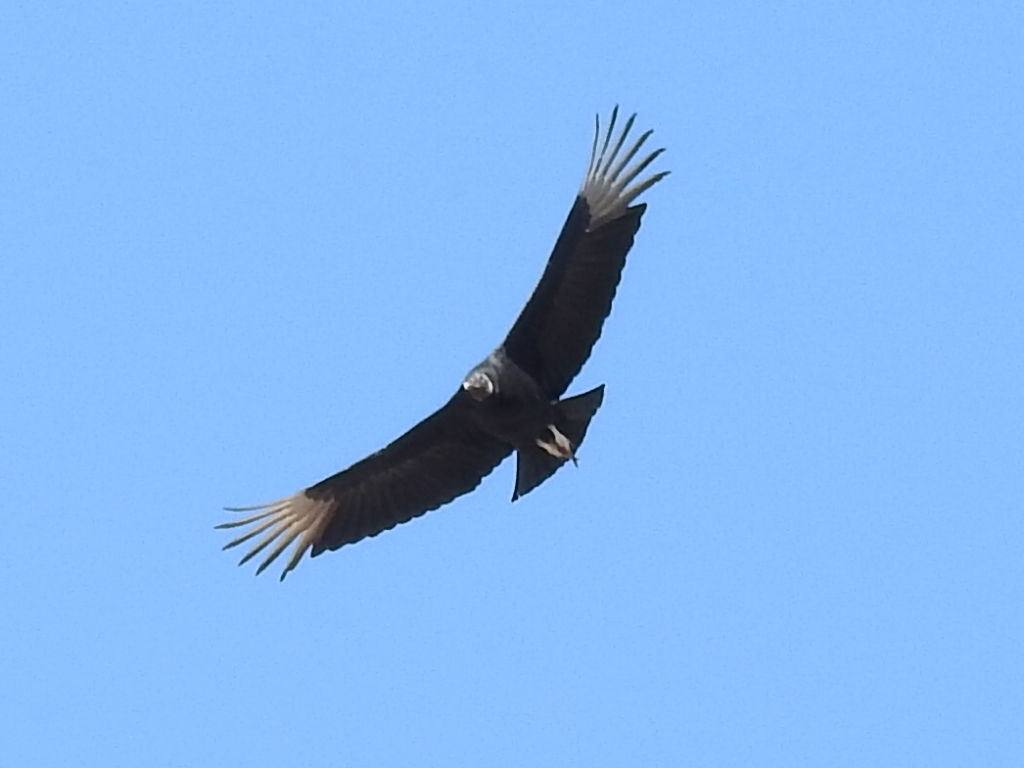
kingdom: Animalia
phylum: Chordata
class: Aves
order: Accipitriformes
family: Cathartidae
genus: Coragyps
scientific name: Coragyps atratus
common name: Black vulture
